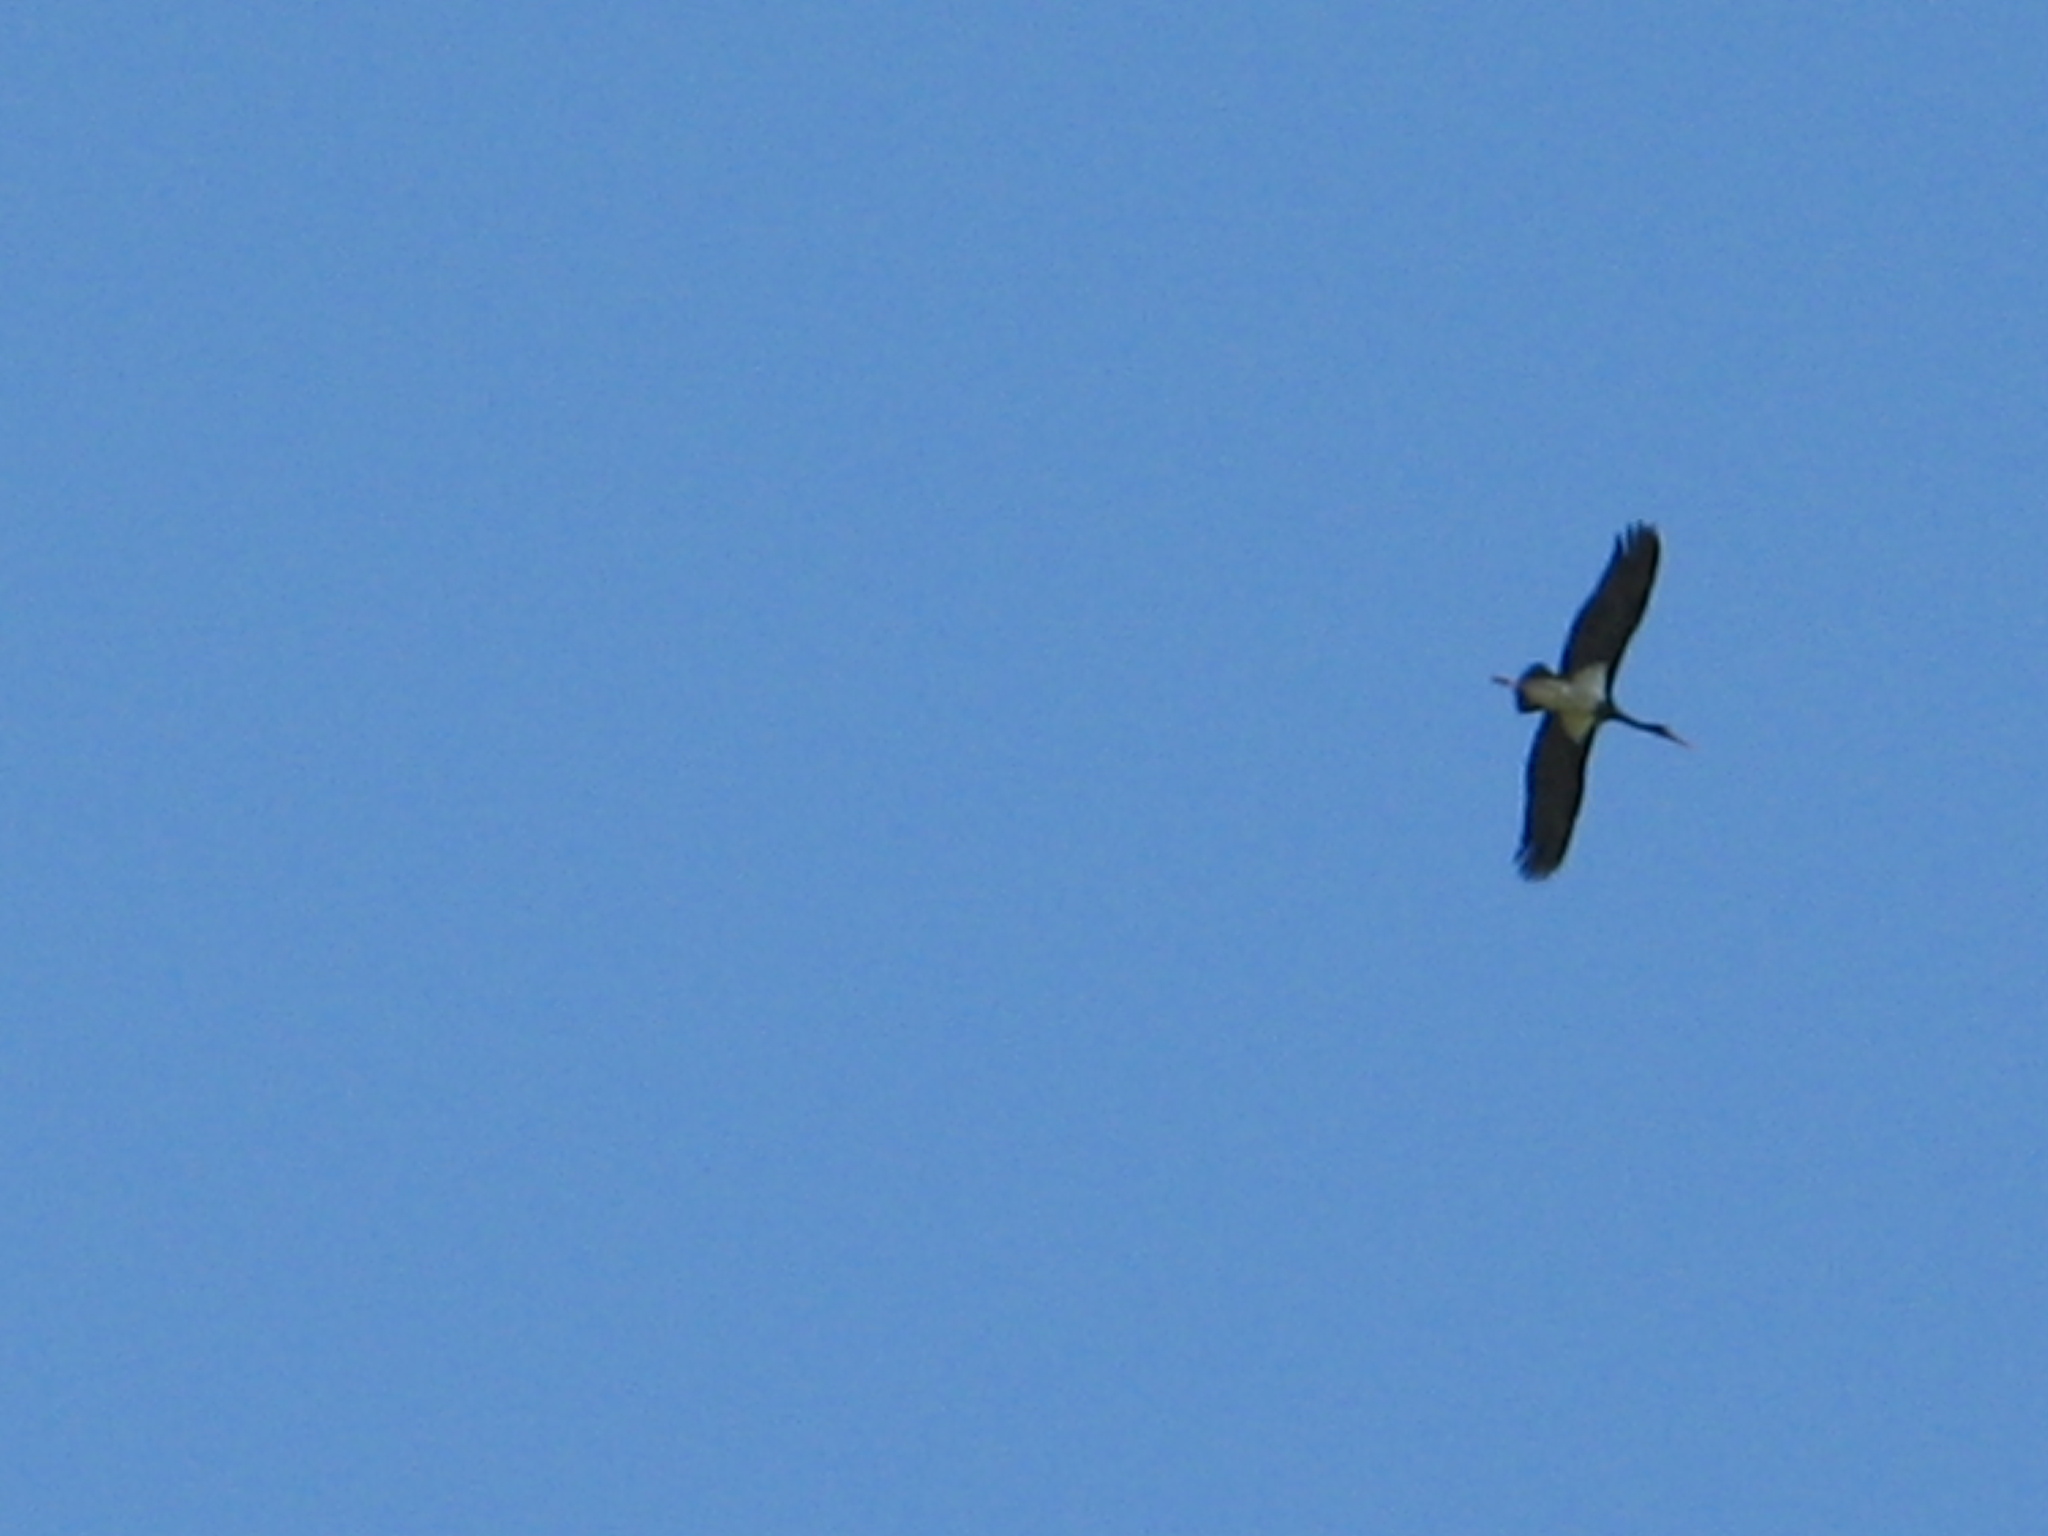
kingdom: Animalia
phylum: Chordata
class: Aves
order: Ciconiiformes
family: Ciconiidae
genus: Ciconia
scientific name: Ciconia nigra
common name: Black stork
